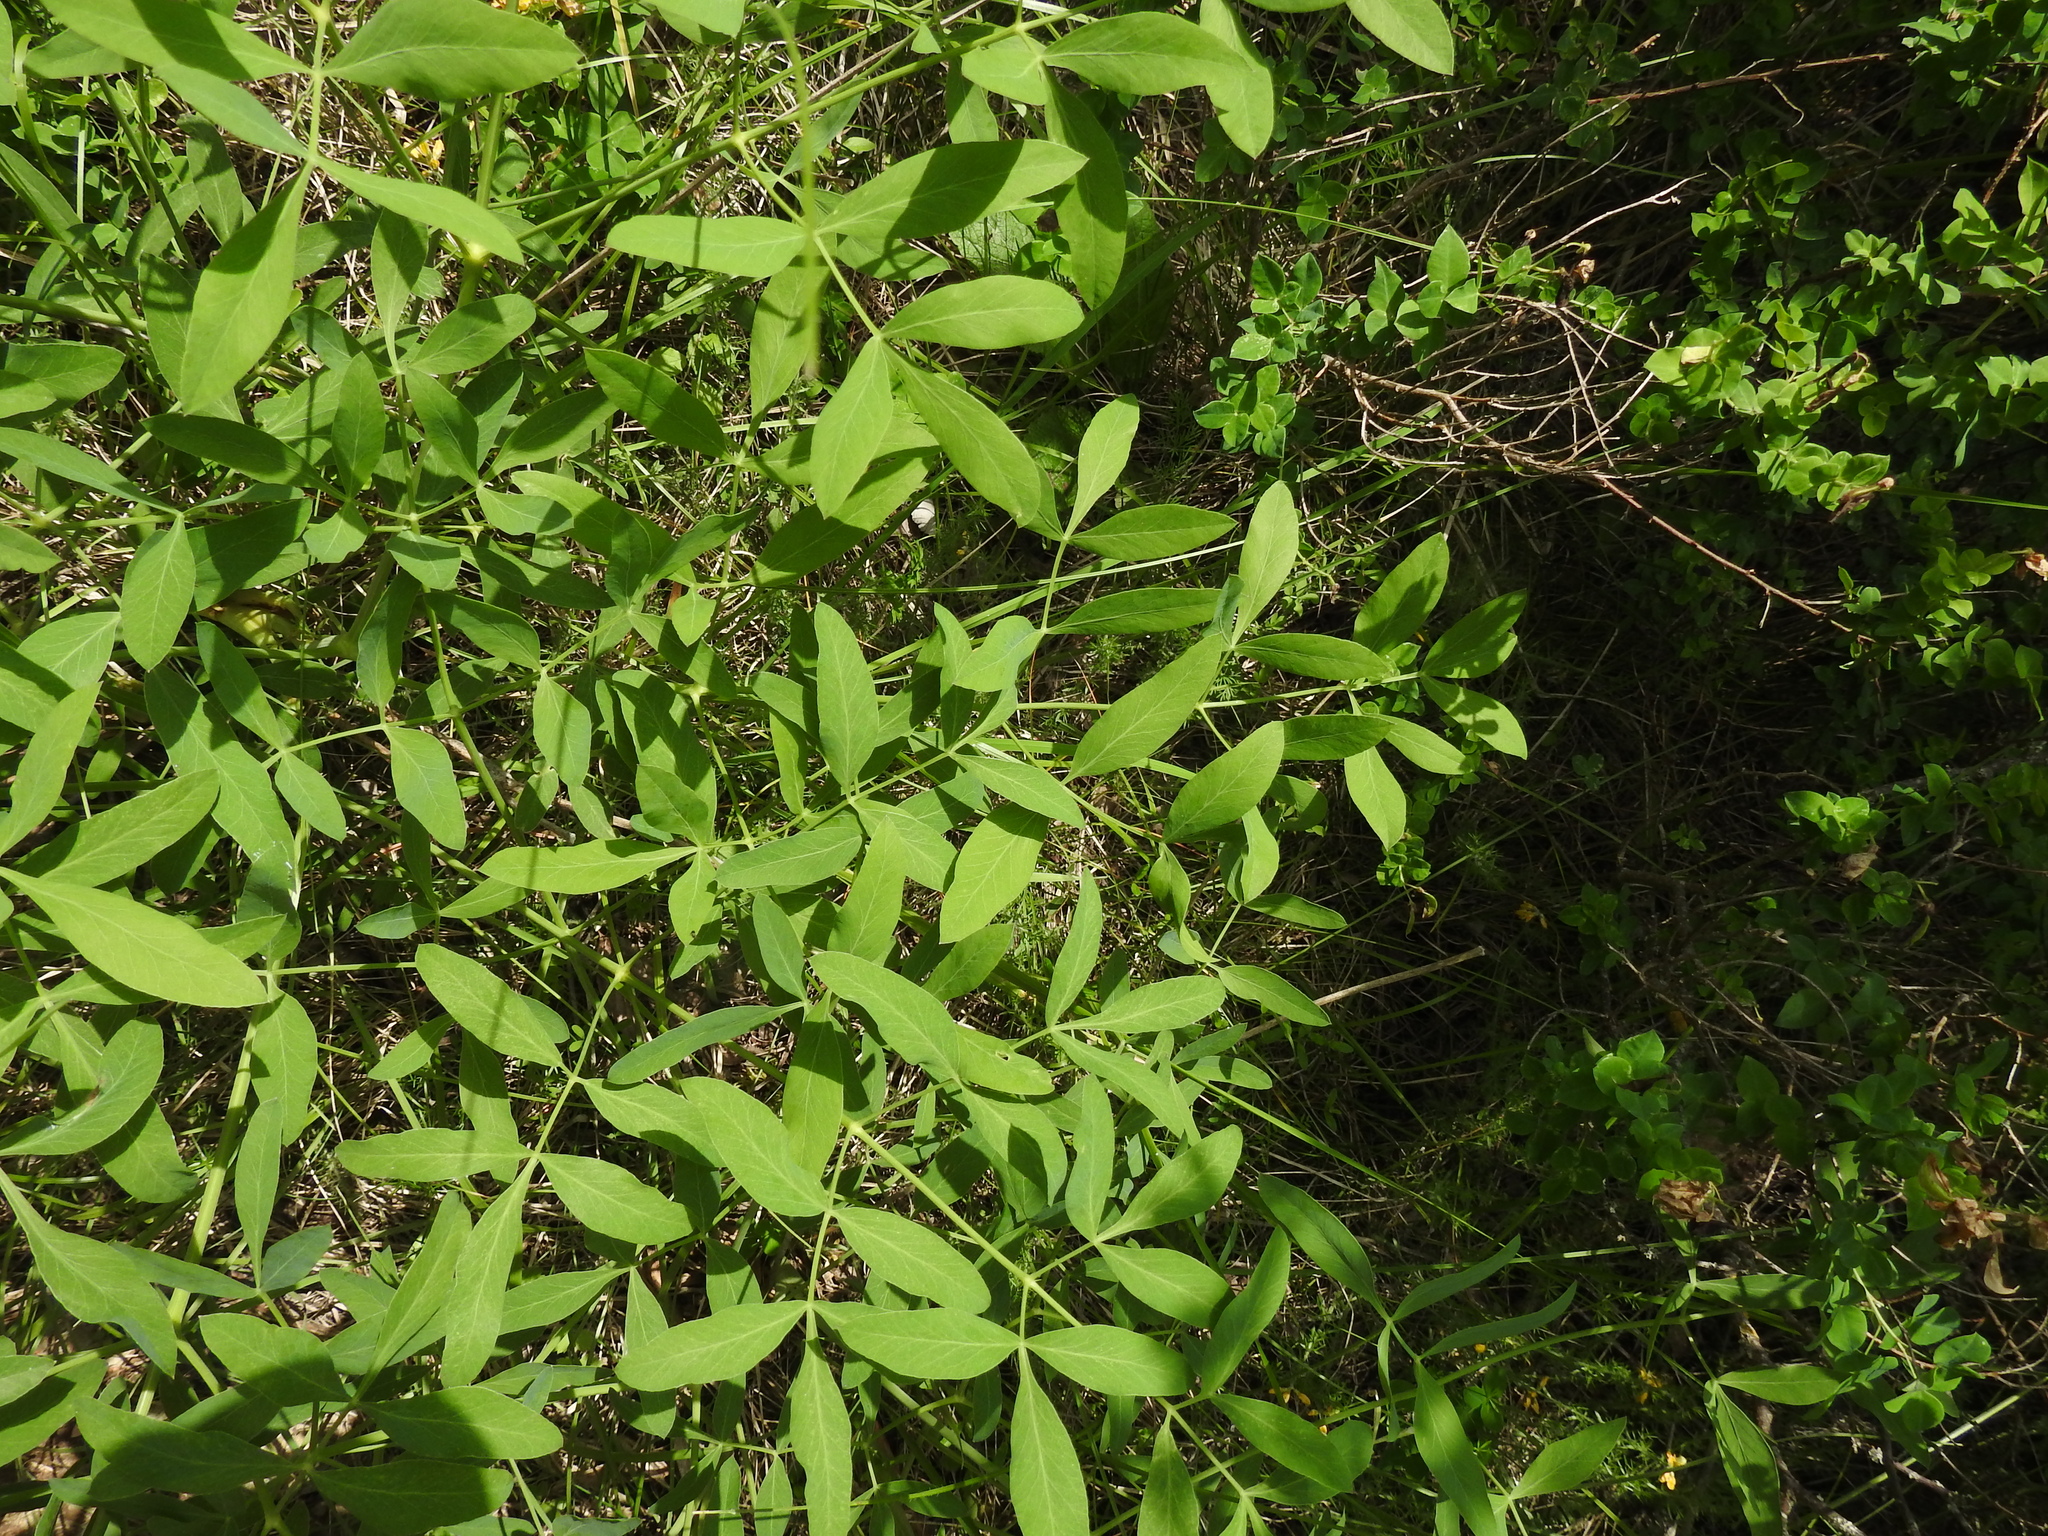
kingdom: Plantae
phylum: Tracheophyta
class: Magnoliopsida
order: Apiales
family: Apiaceae
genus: Siler
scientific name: Siler montanum
